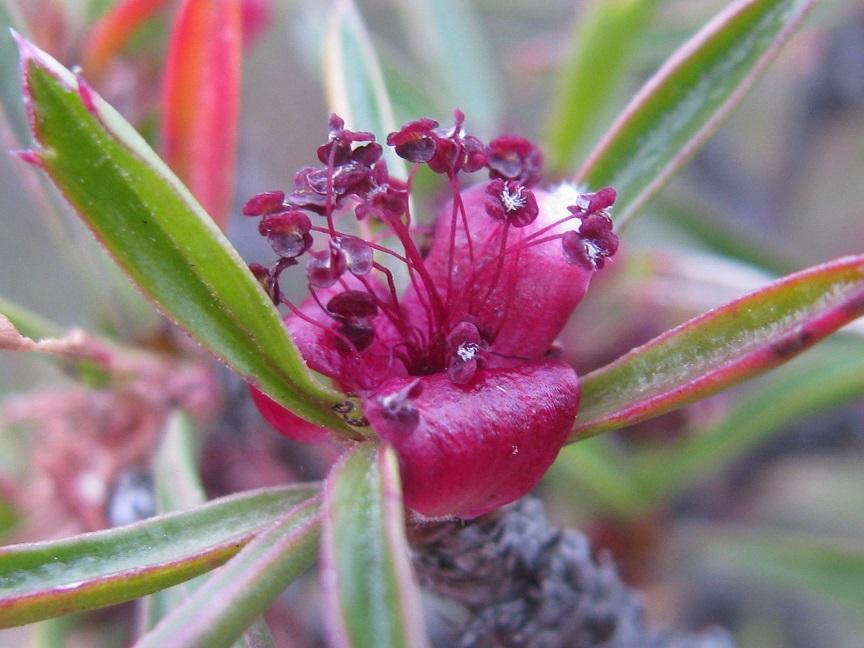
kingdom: Plantae
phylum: Tracheophyta
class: Magnoliopsida
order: Rosales
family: Rosaceae
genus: Cliffortia
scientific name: Cliffortia acutifolia
